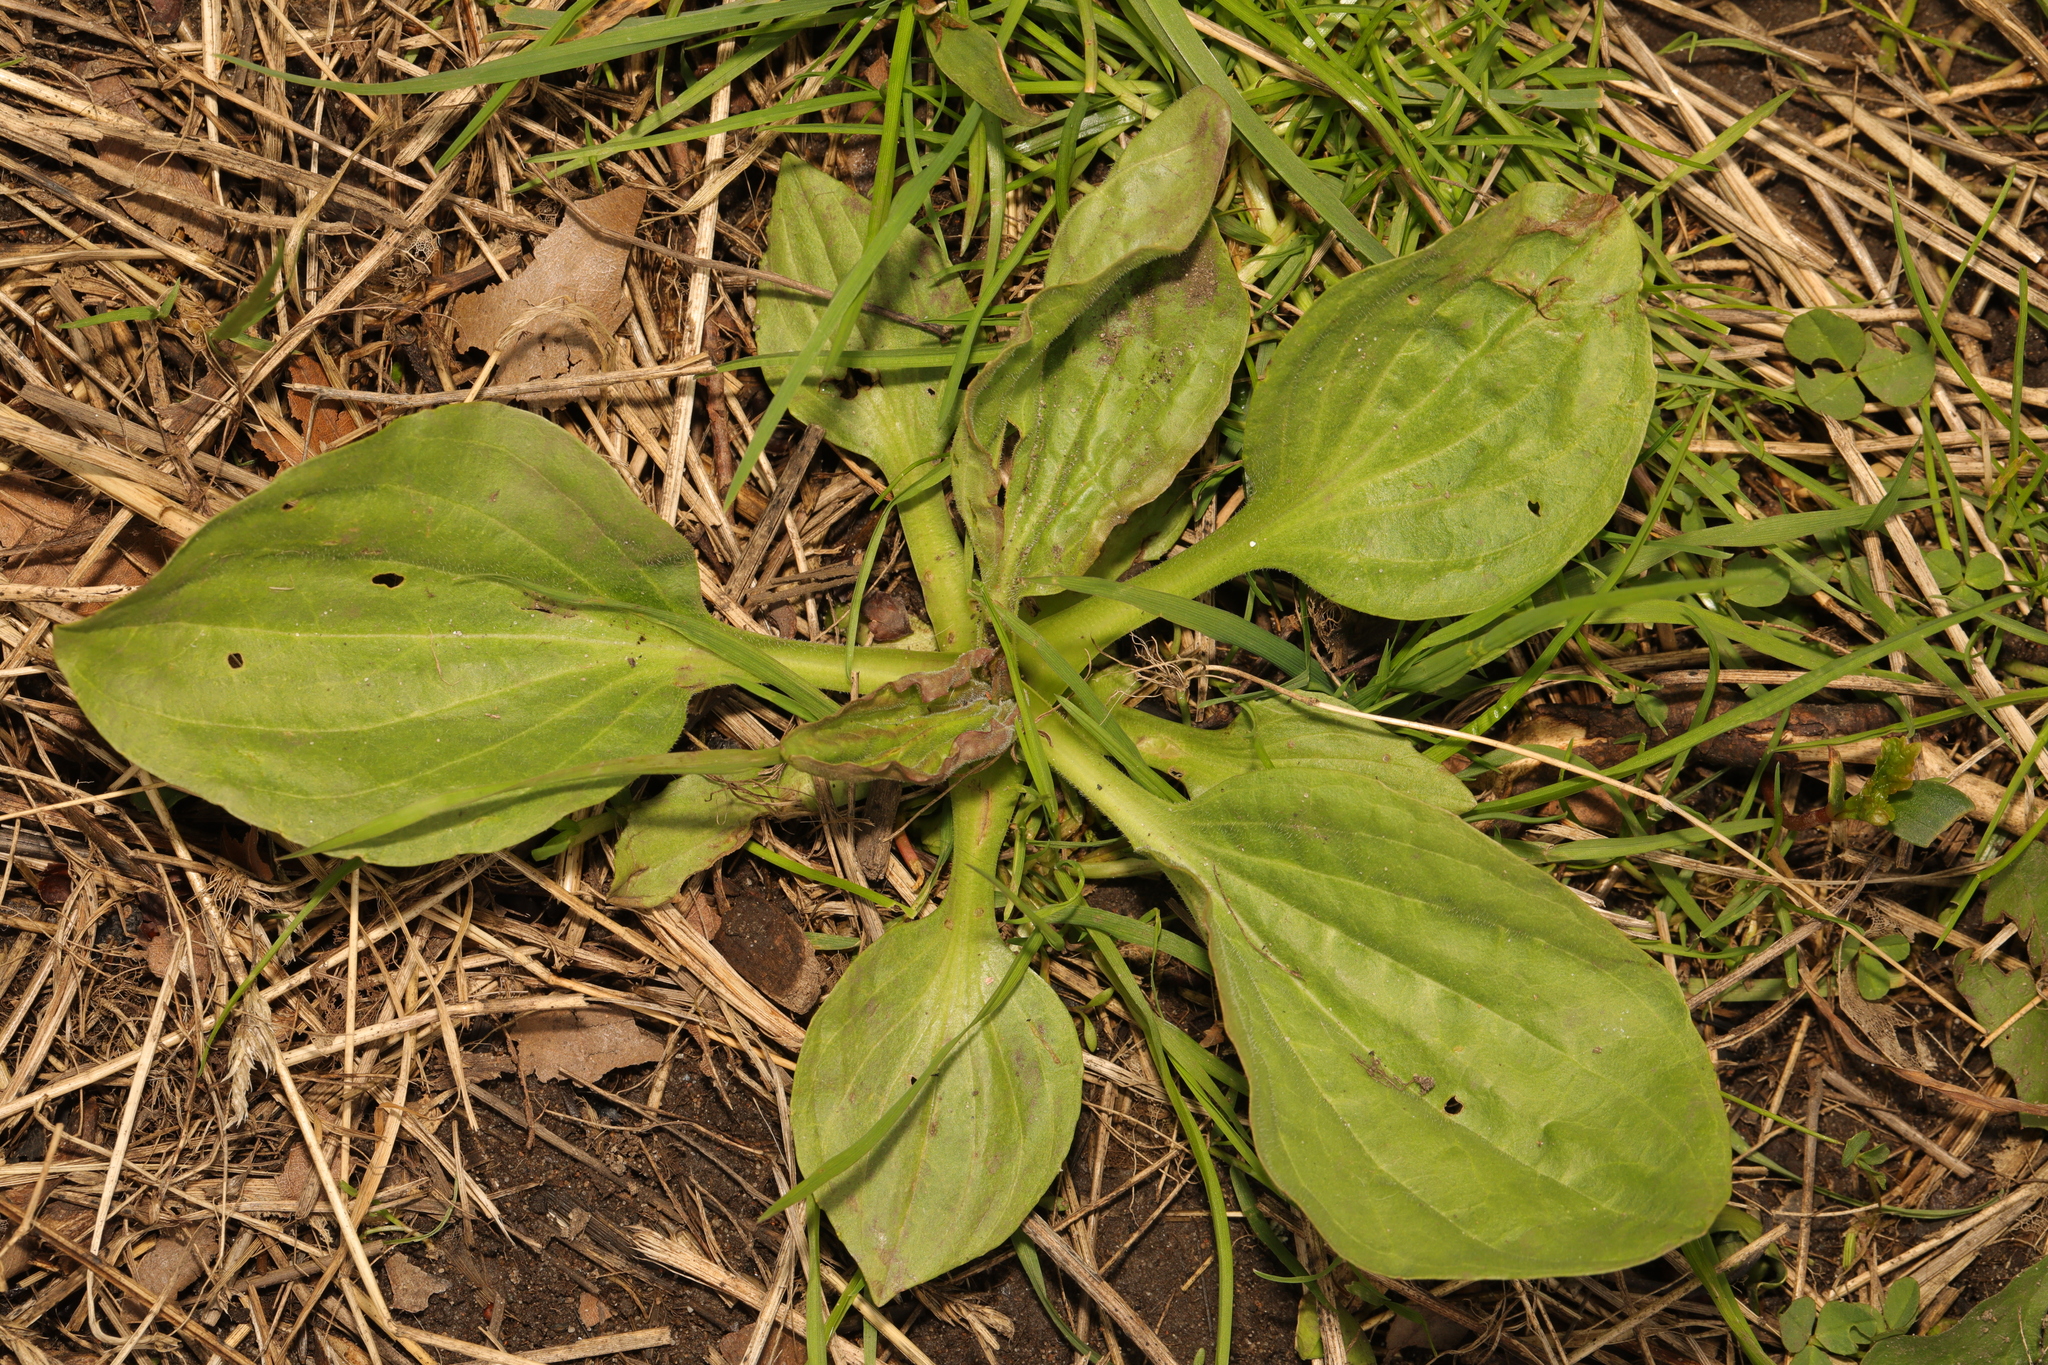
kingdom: Plantae
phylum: Tracheophyta
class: Magnoliopsida
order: Lamiales
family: Plantaginaceae
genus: Plantago
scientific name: Plantago major
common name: Common plantain
